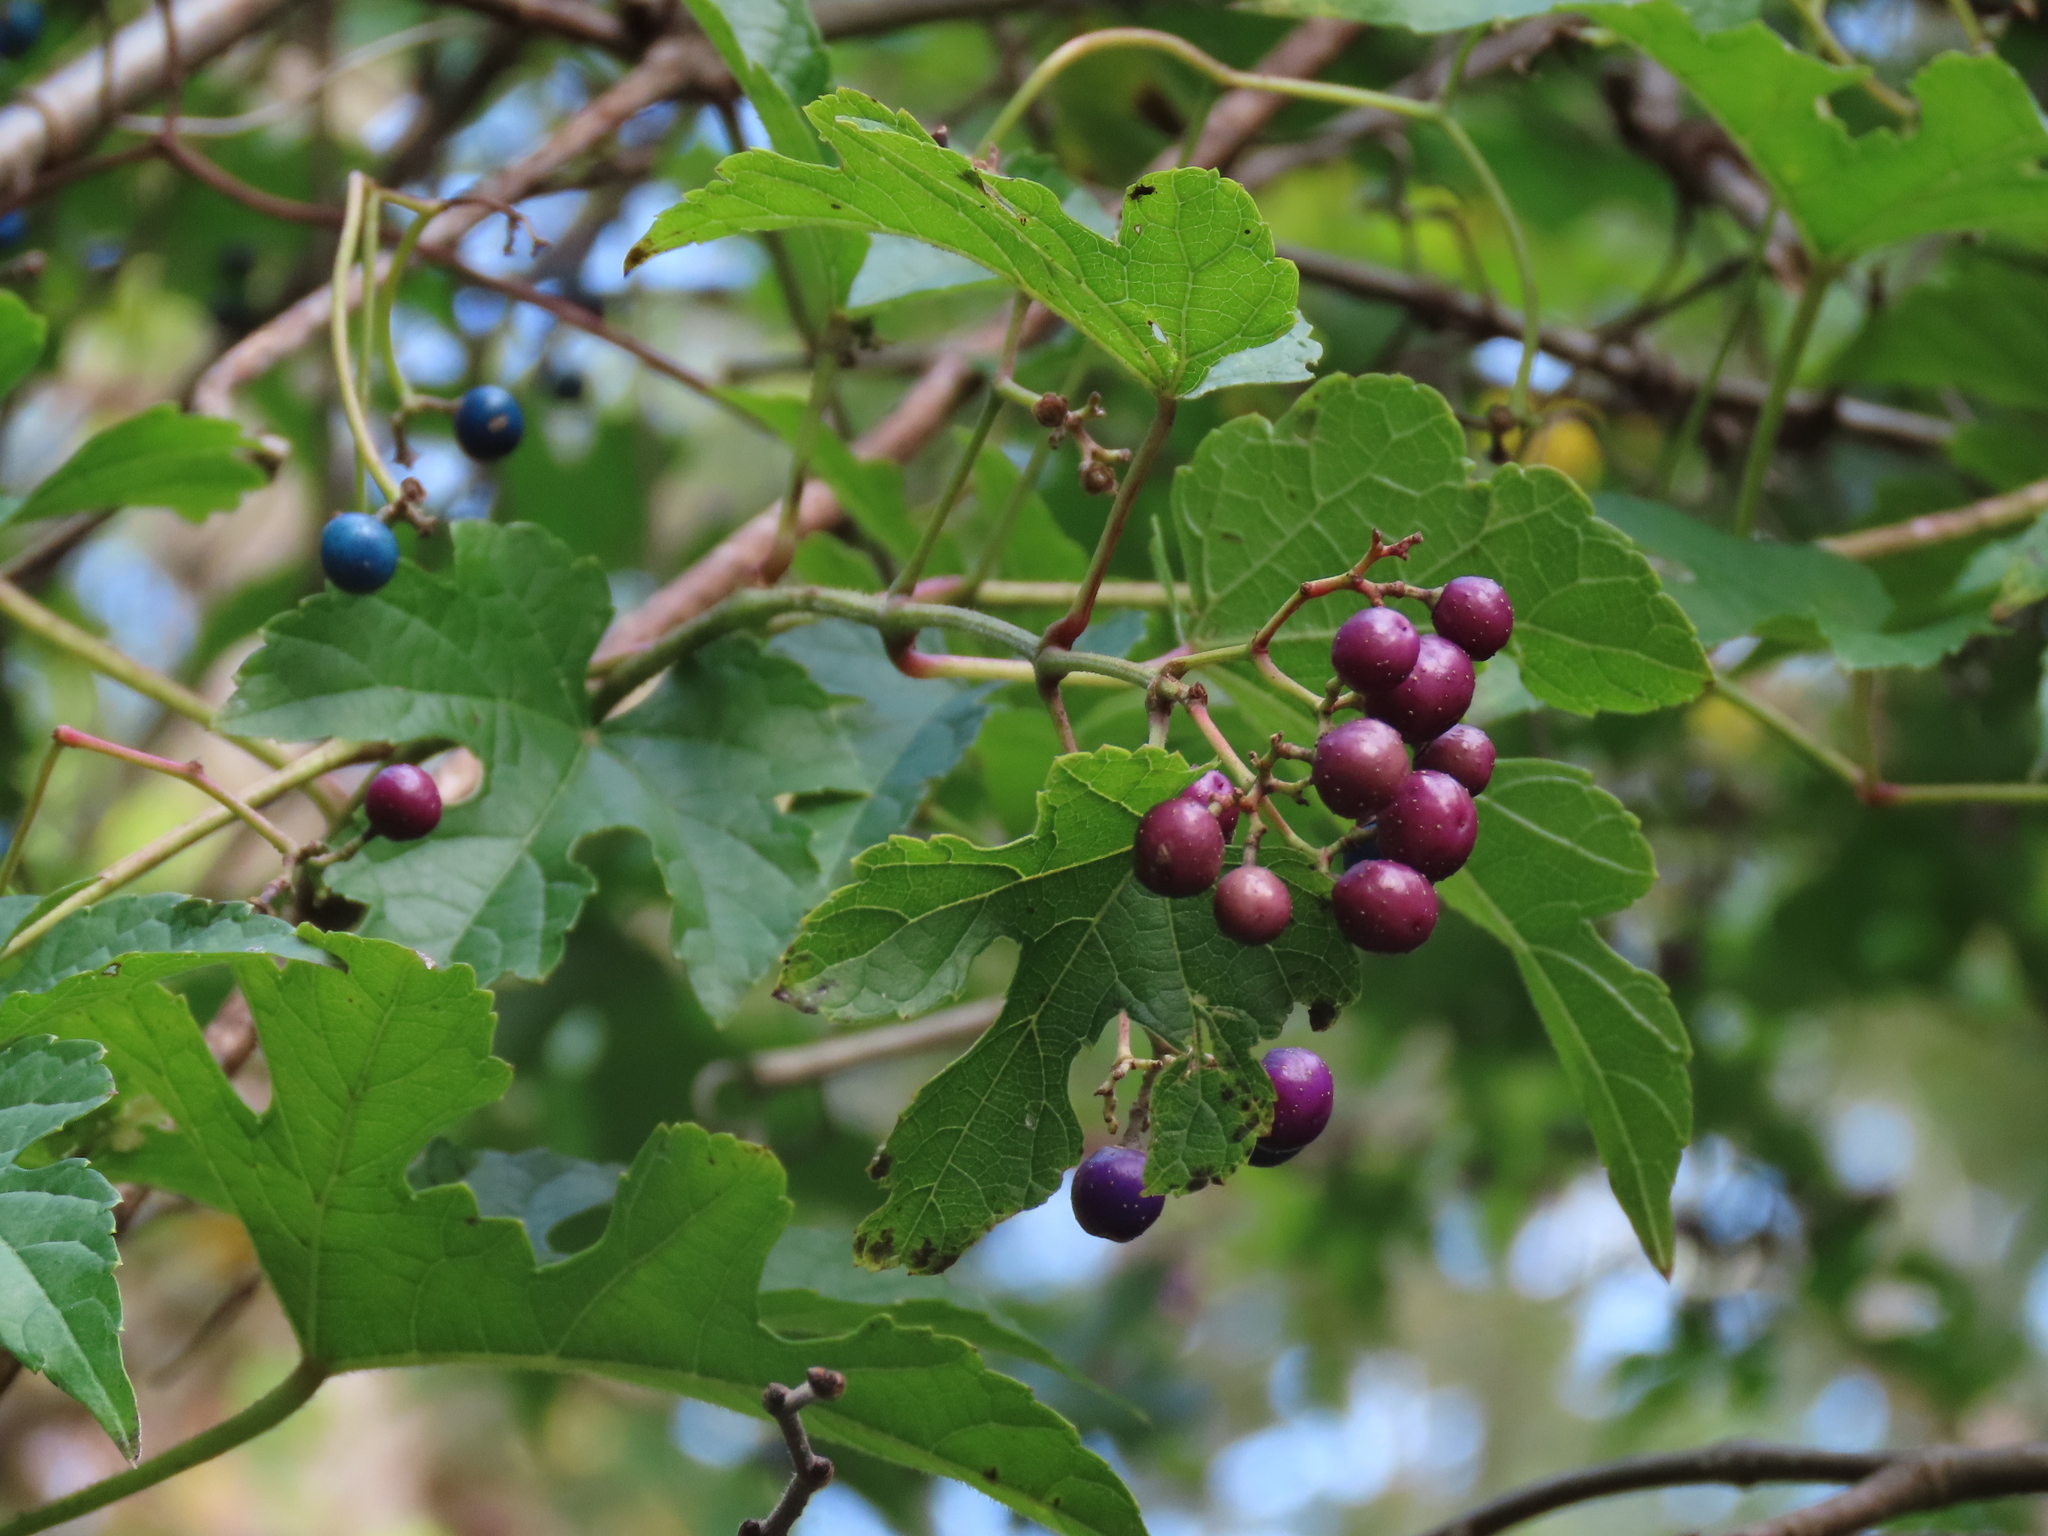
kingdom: Plantae
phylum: Tracheophyta
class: Magnoliopsida
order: Vitales
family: Vitaceae
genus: Ampelopsis
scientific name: Ampelopsis glandulosa
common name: Amur peppervine
